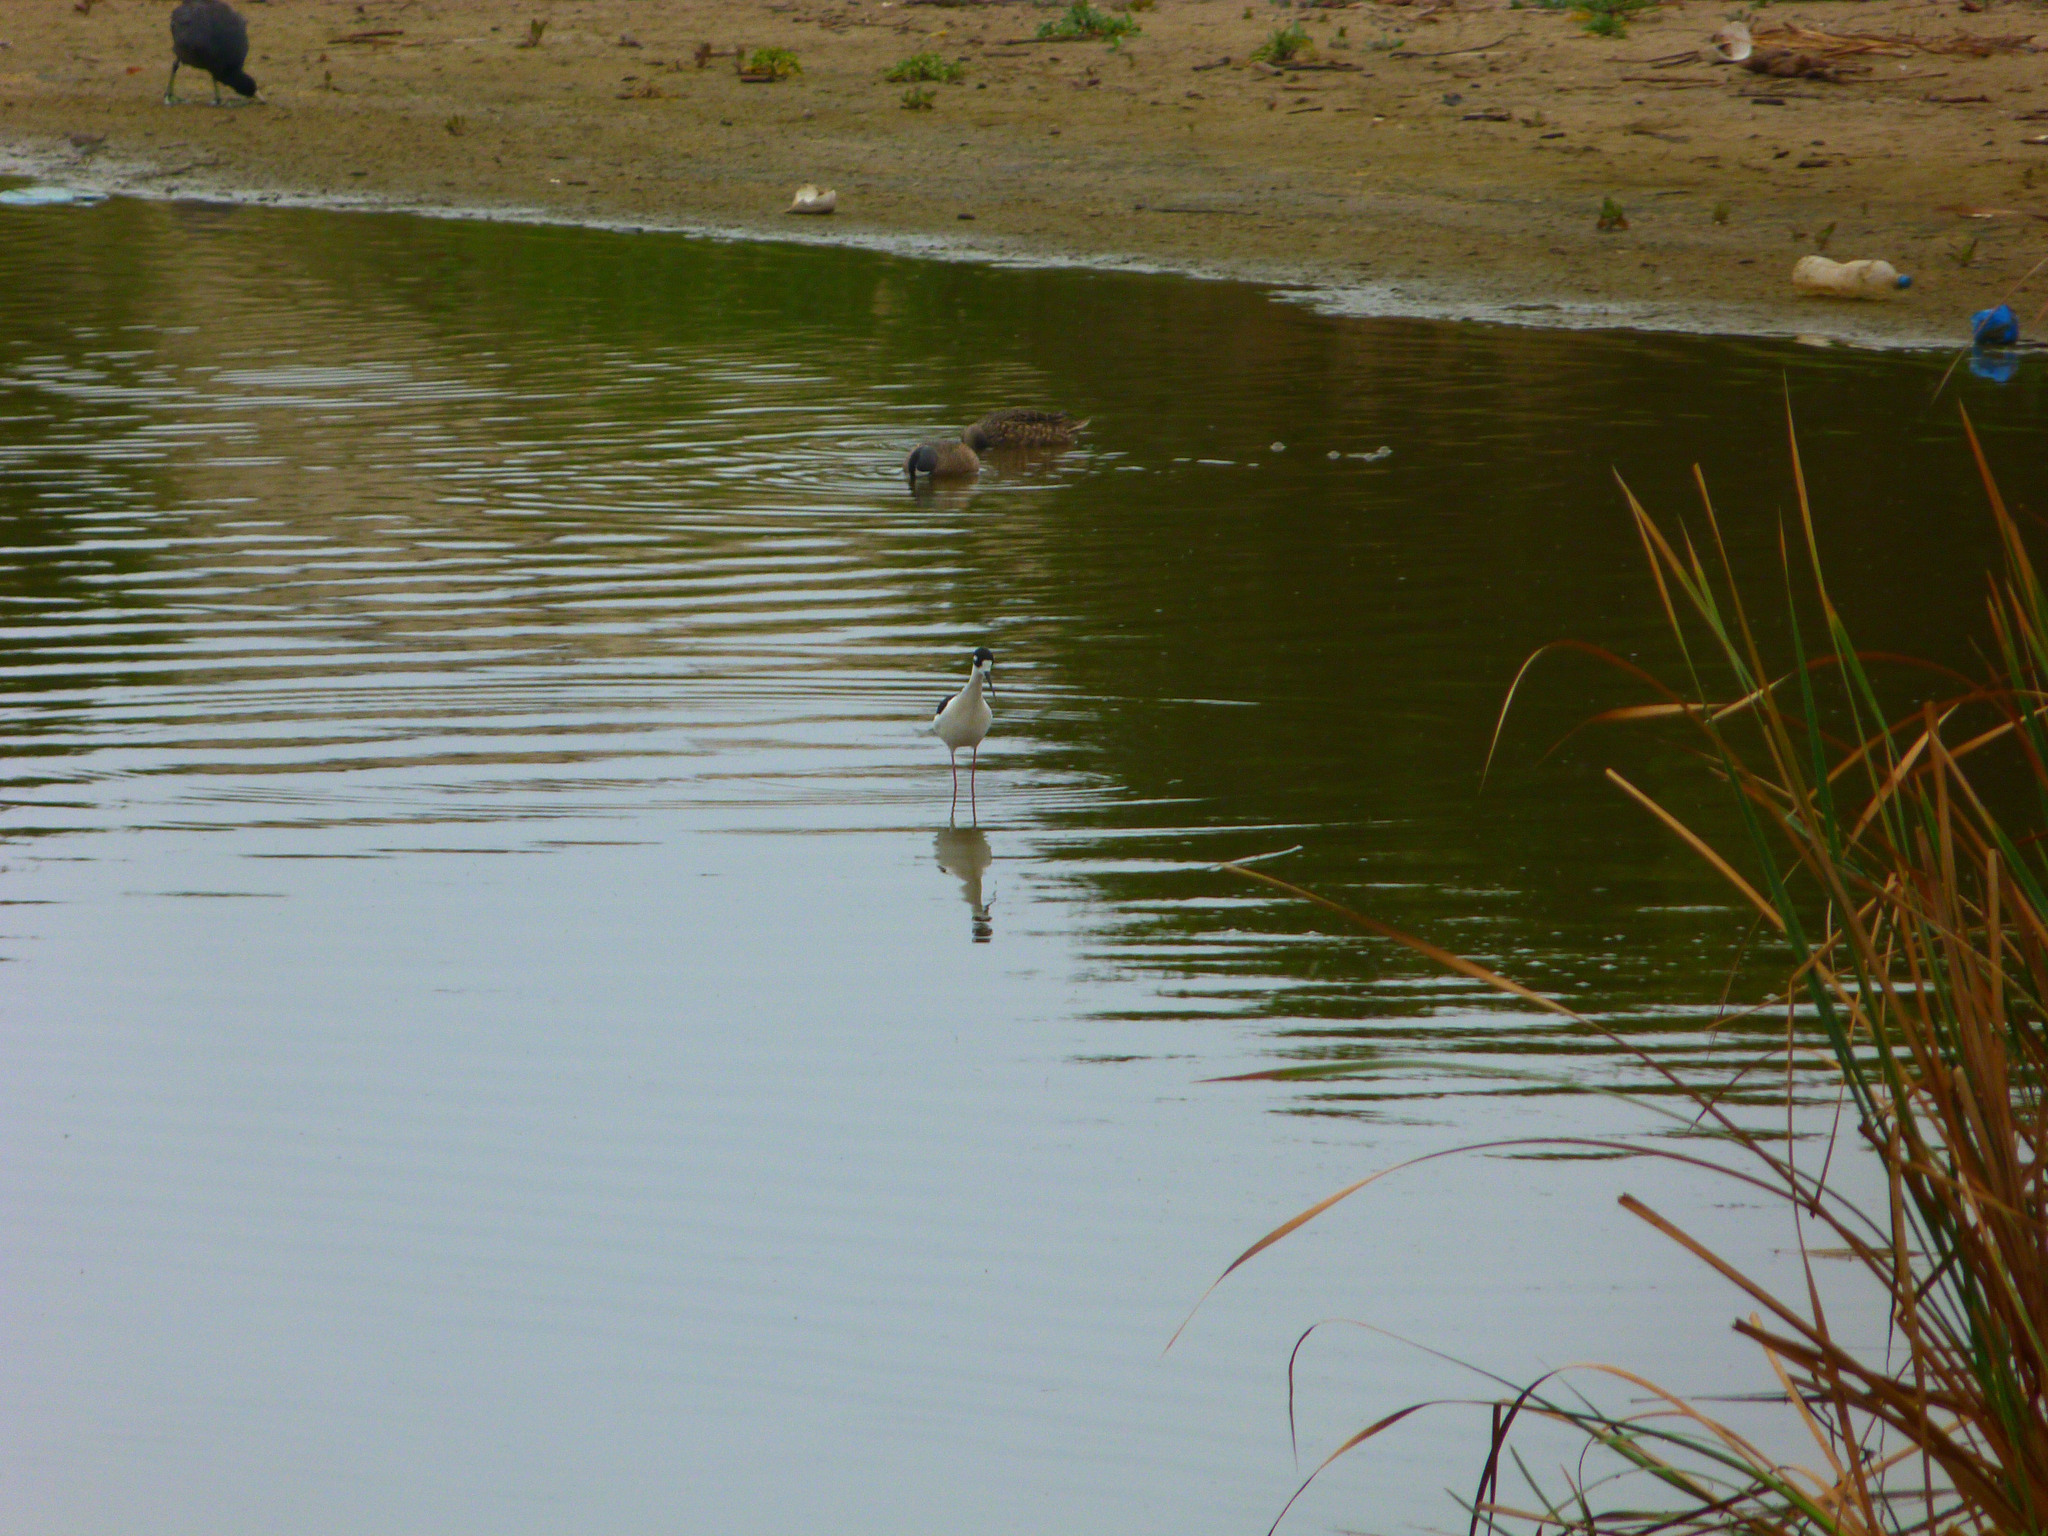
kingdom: Animalia
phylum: Chordata
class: Aves
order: Charadriiformes
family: Recurvirostridae
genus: Himantopus
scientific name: Himantopus mexicanus
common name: Black-necked stilt
